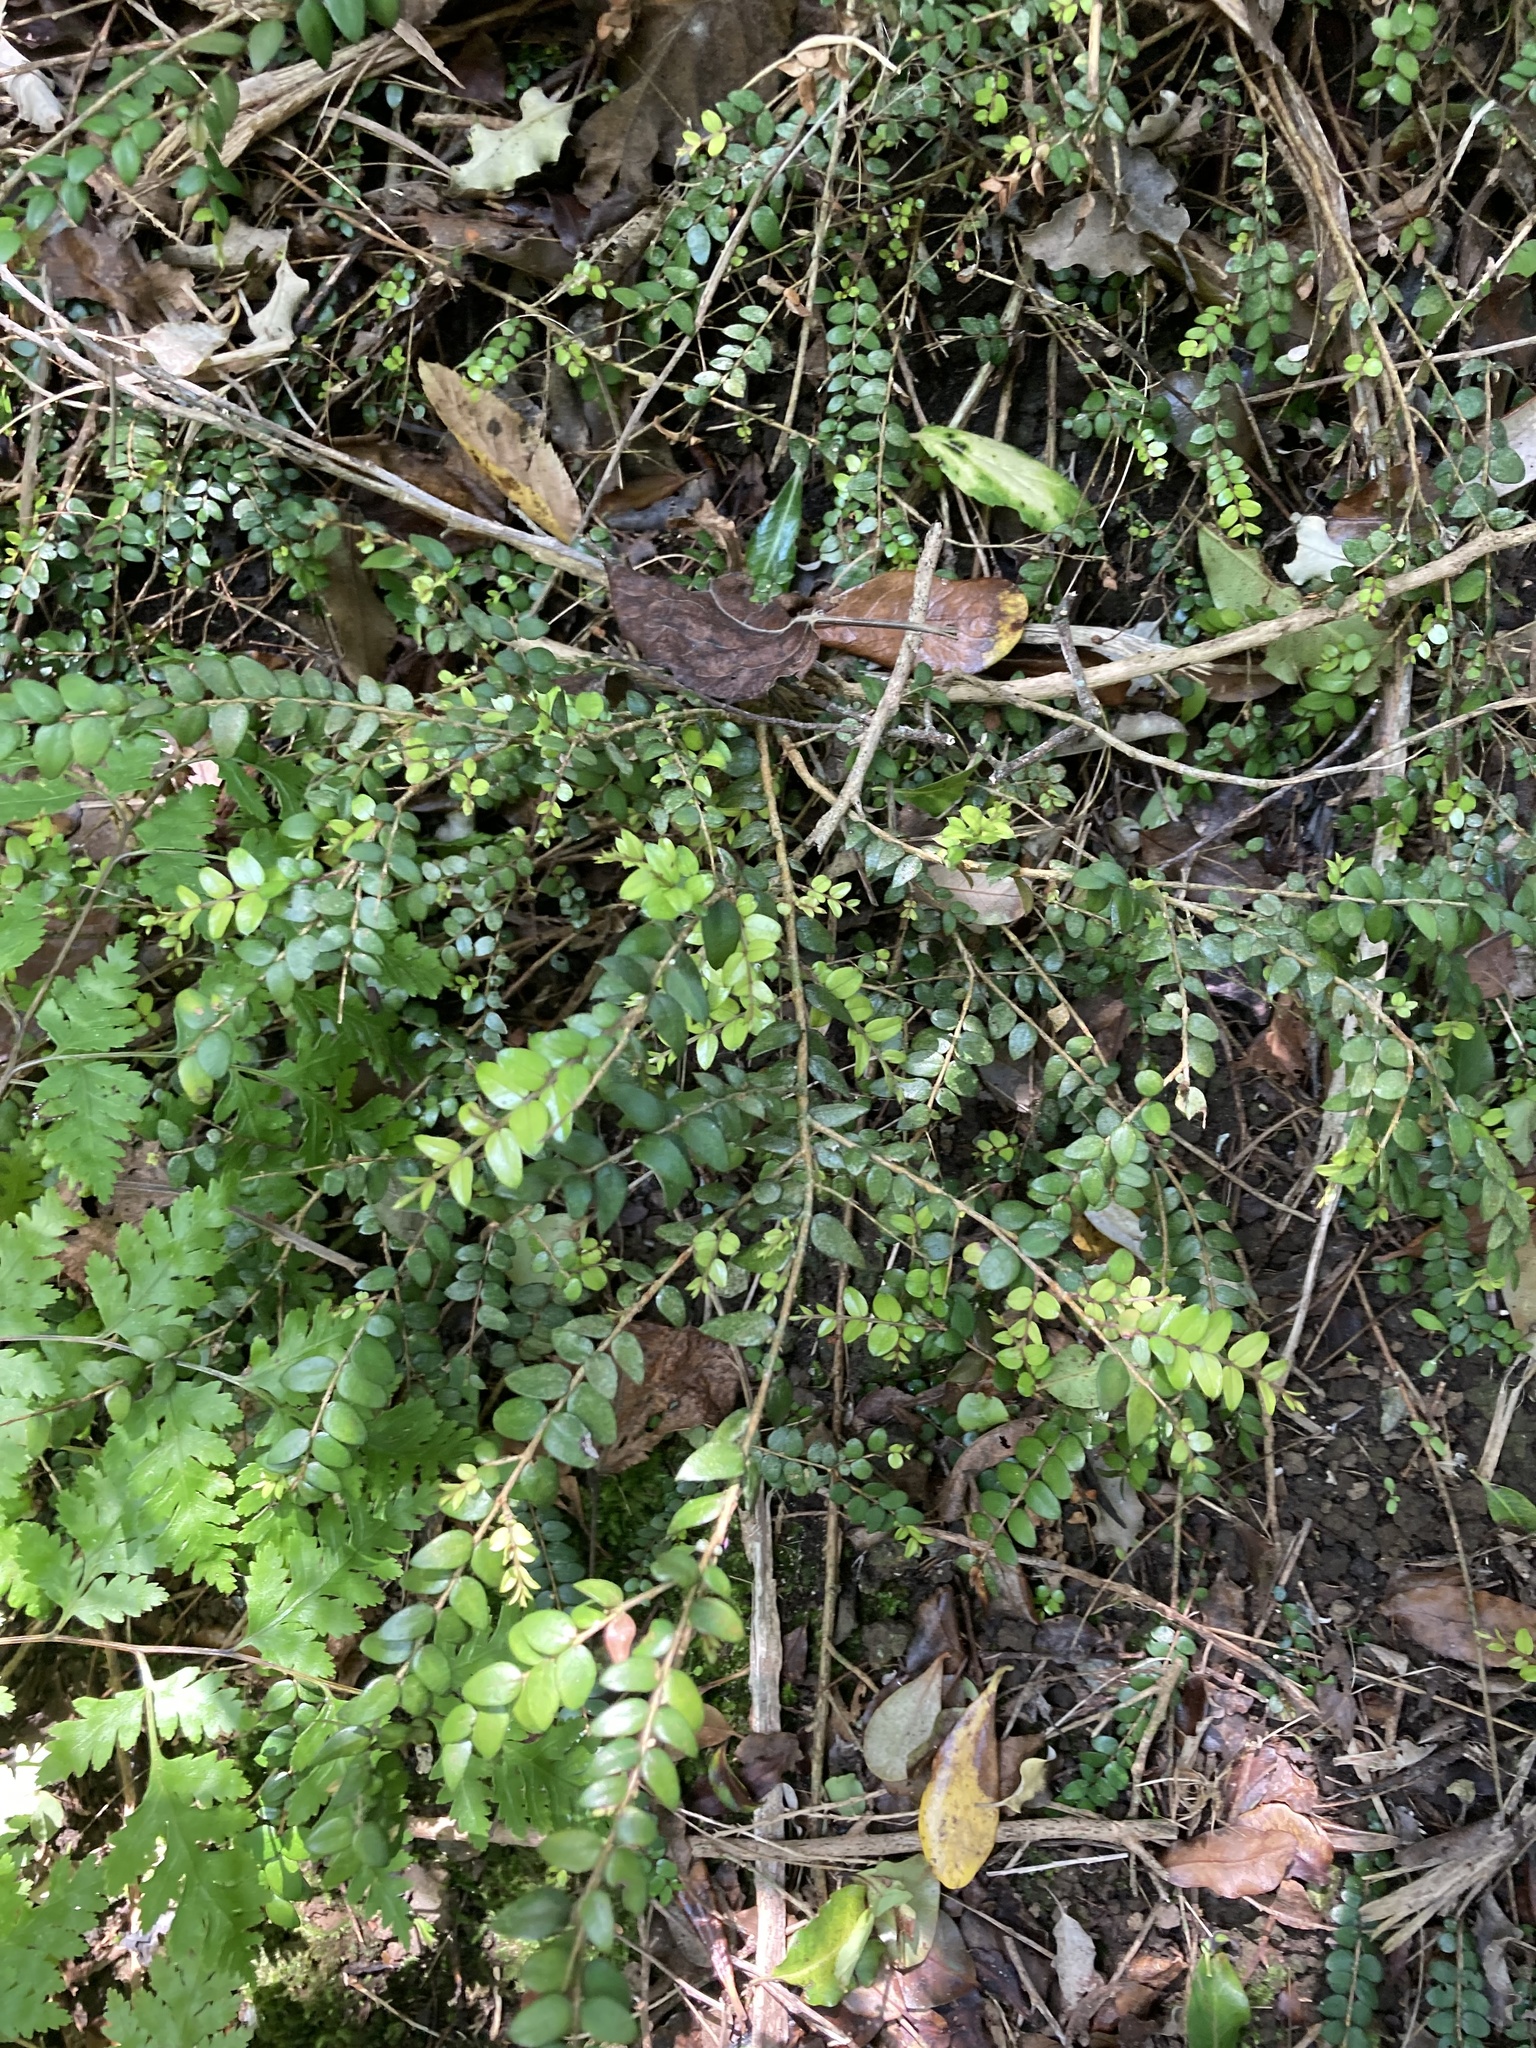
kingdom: Plantae
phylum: Tracheophyta
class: Magnoliopsida
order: Myrtales
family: Myrtaceae
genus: Metrosideros
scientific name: Metrosideros diffusa
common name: Small ratavine
